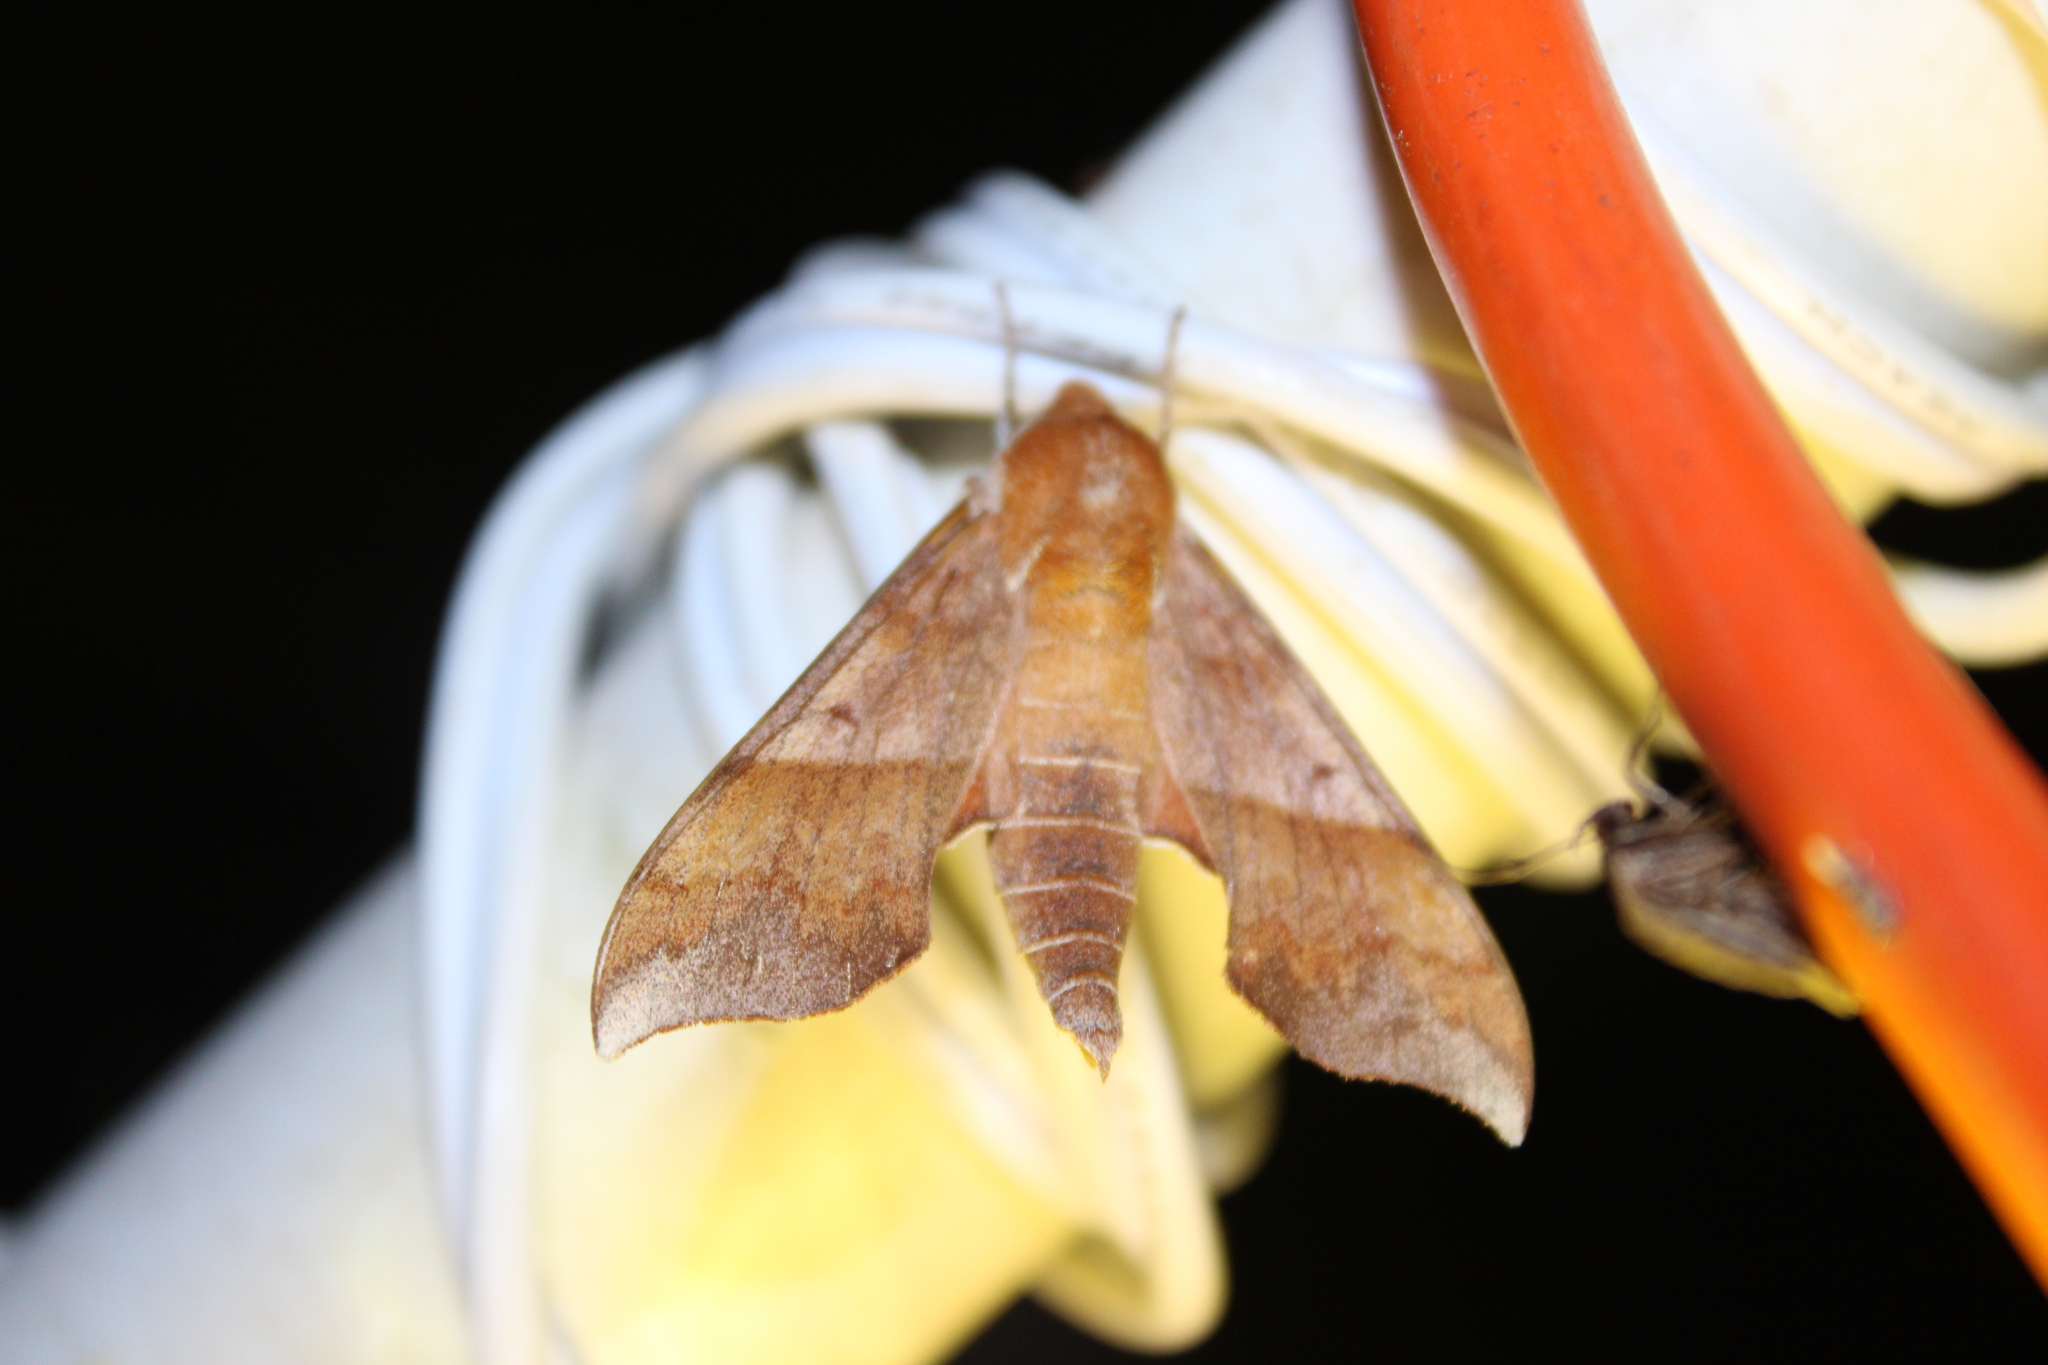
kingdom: Animalia
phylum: Arthropoda
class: Insecta
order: Lepidoptera
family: Sphingidae
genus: Darapsa
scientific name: Darapsa choerilus
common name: Azalea sphinx
